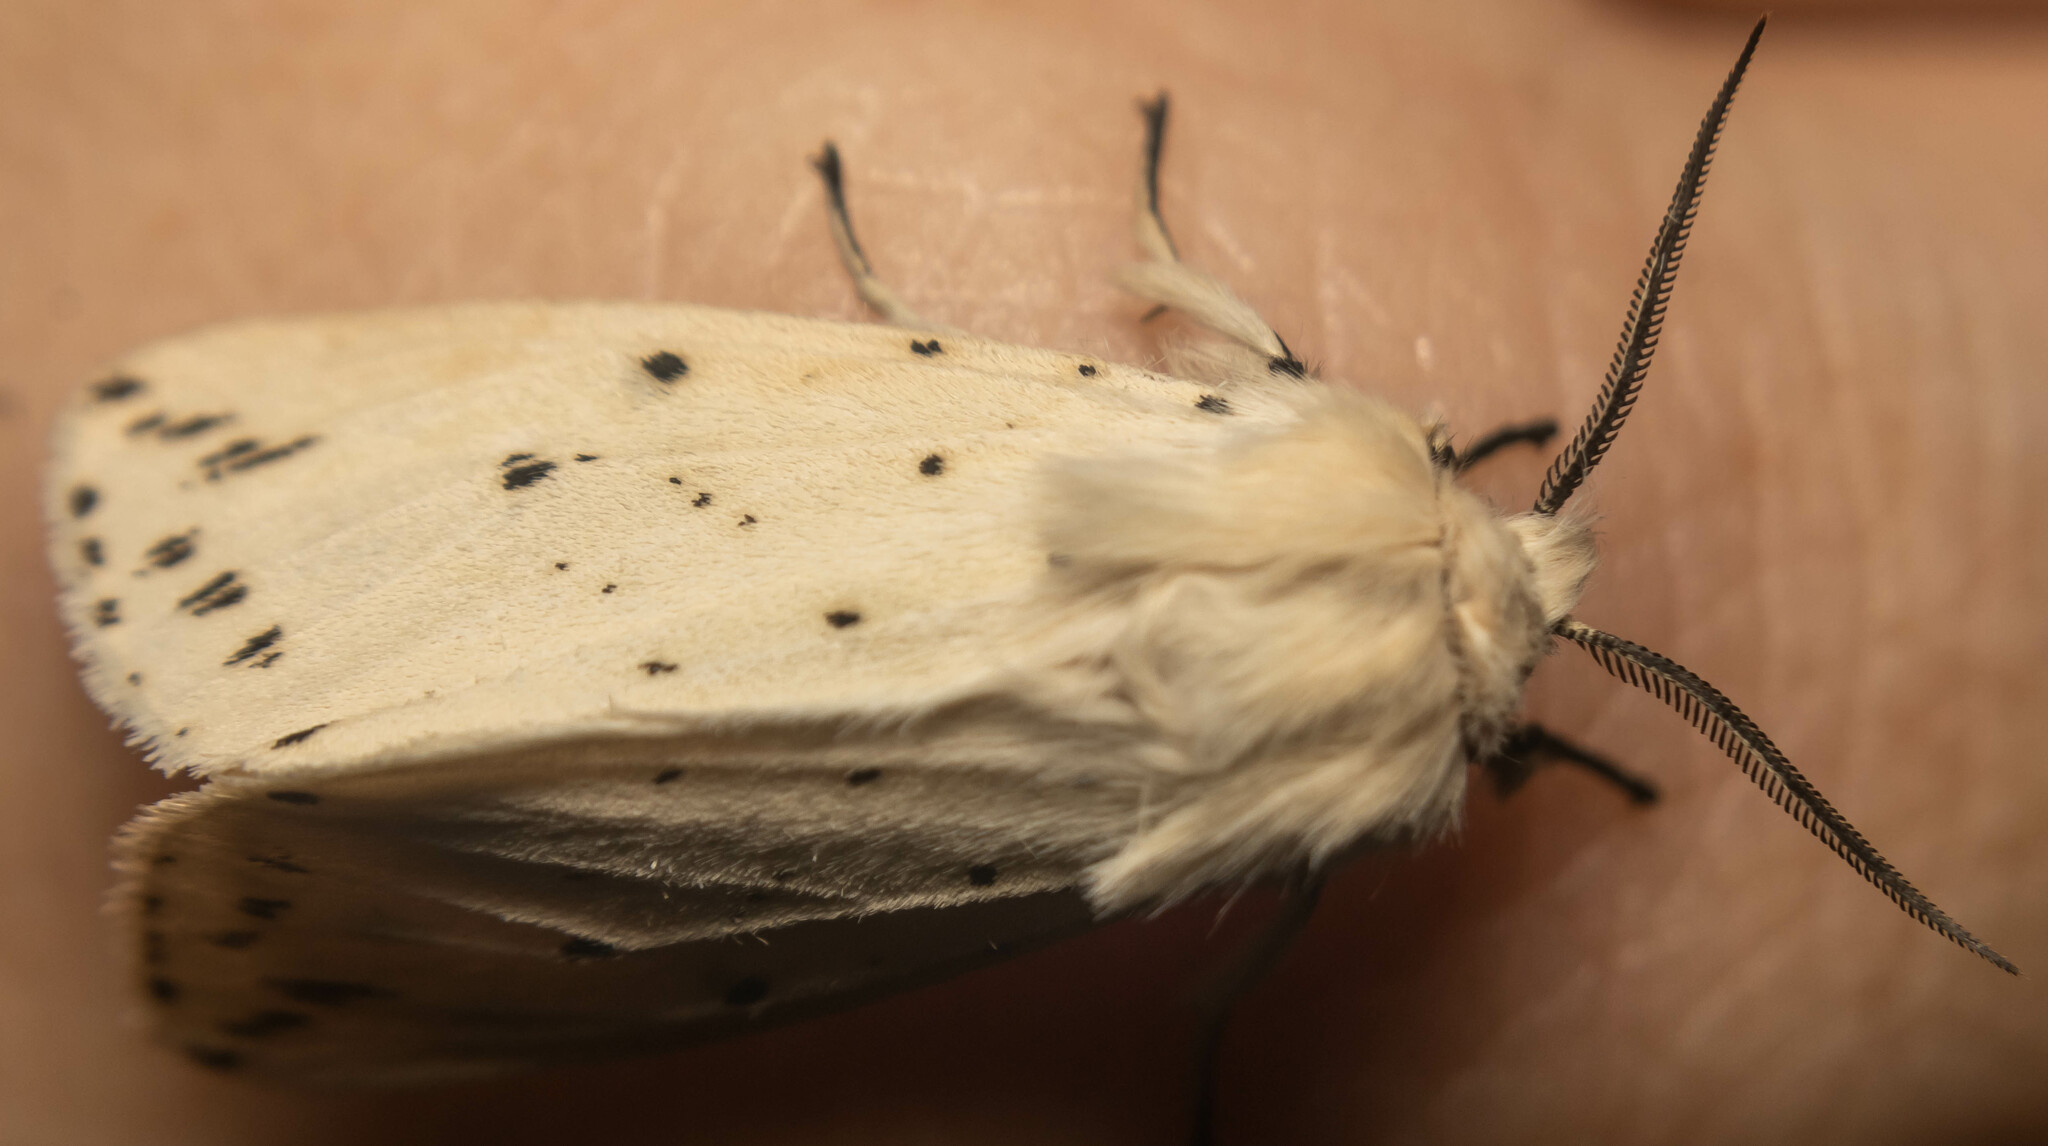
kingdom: Animalia
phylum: Arthropoda
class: Insecta
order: Lepidoptera
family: Erebidae
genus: Spilosoma
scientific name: Spilosoma lubricipeda
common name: White ermine
